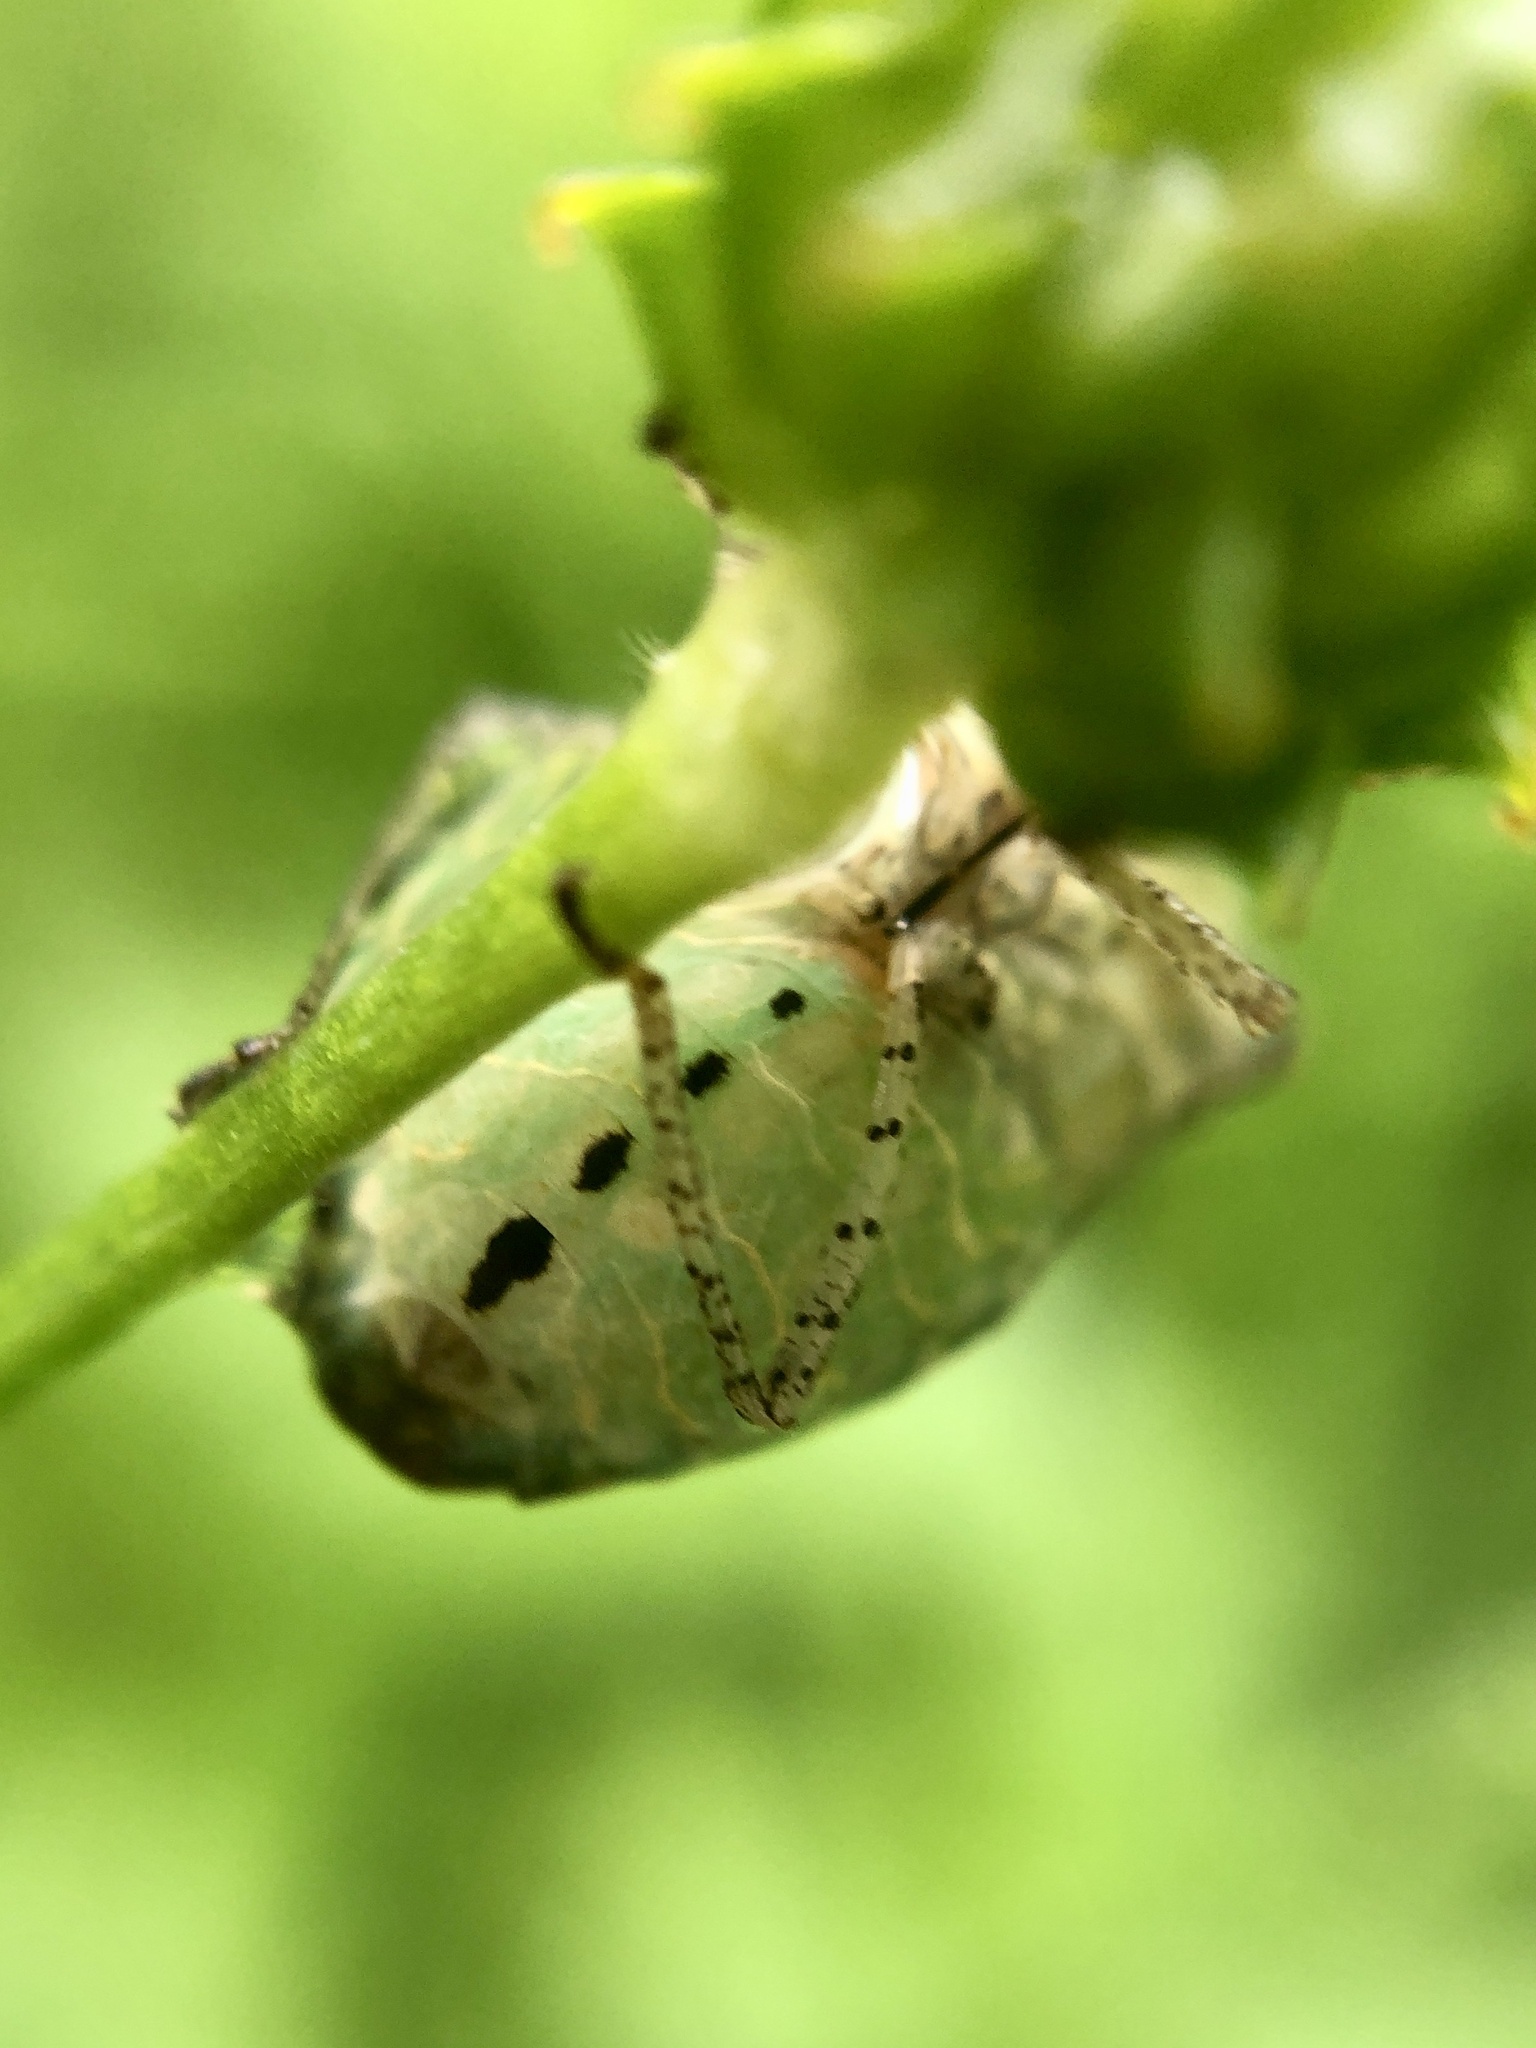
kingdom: Animalia
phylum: Arthropoda
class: Insecta
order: Hemiptera
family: Pentatomidae
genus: Euschistus
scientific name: Euschistus tristigmus
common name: Dusky stink bug
